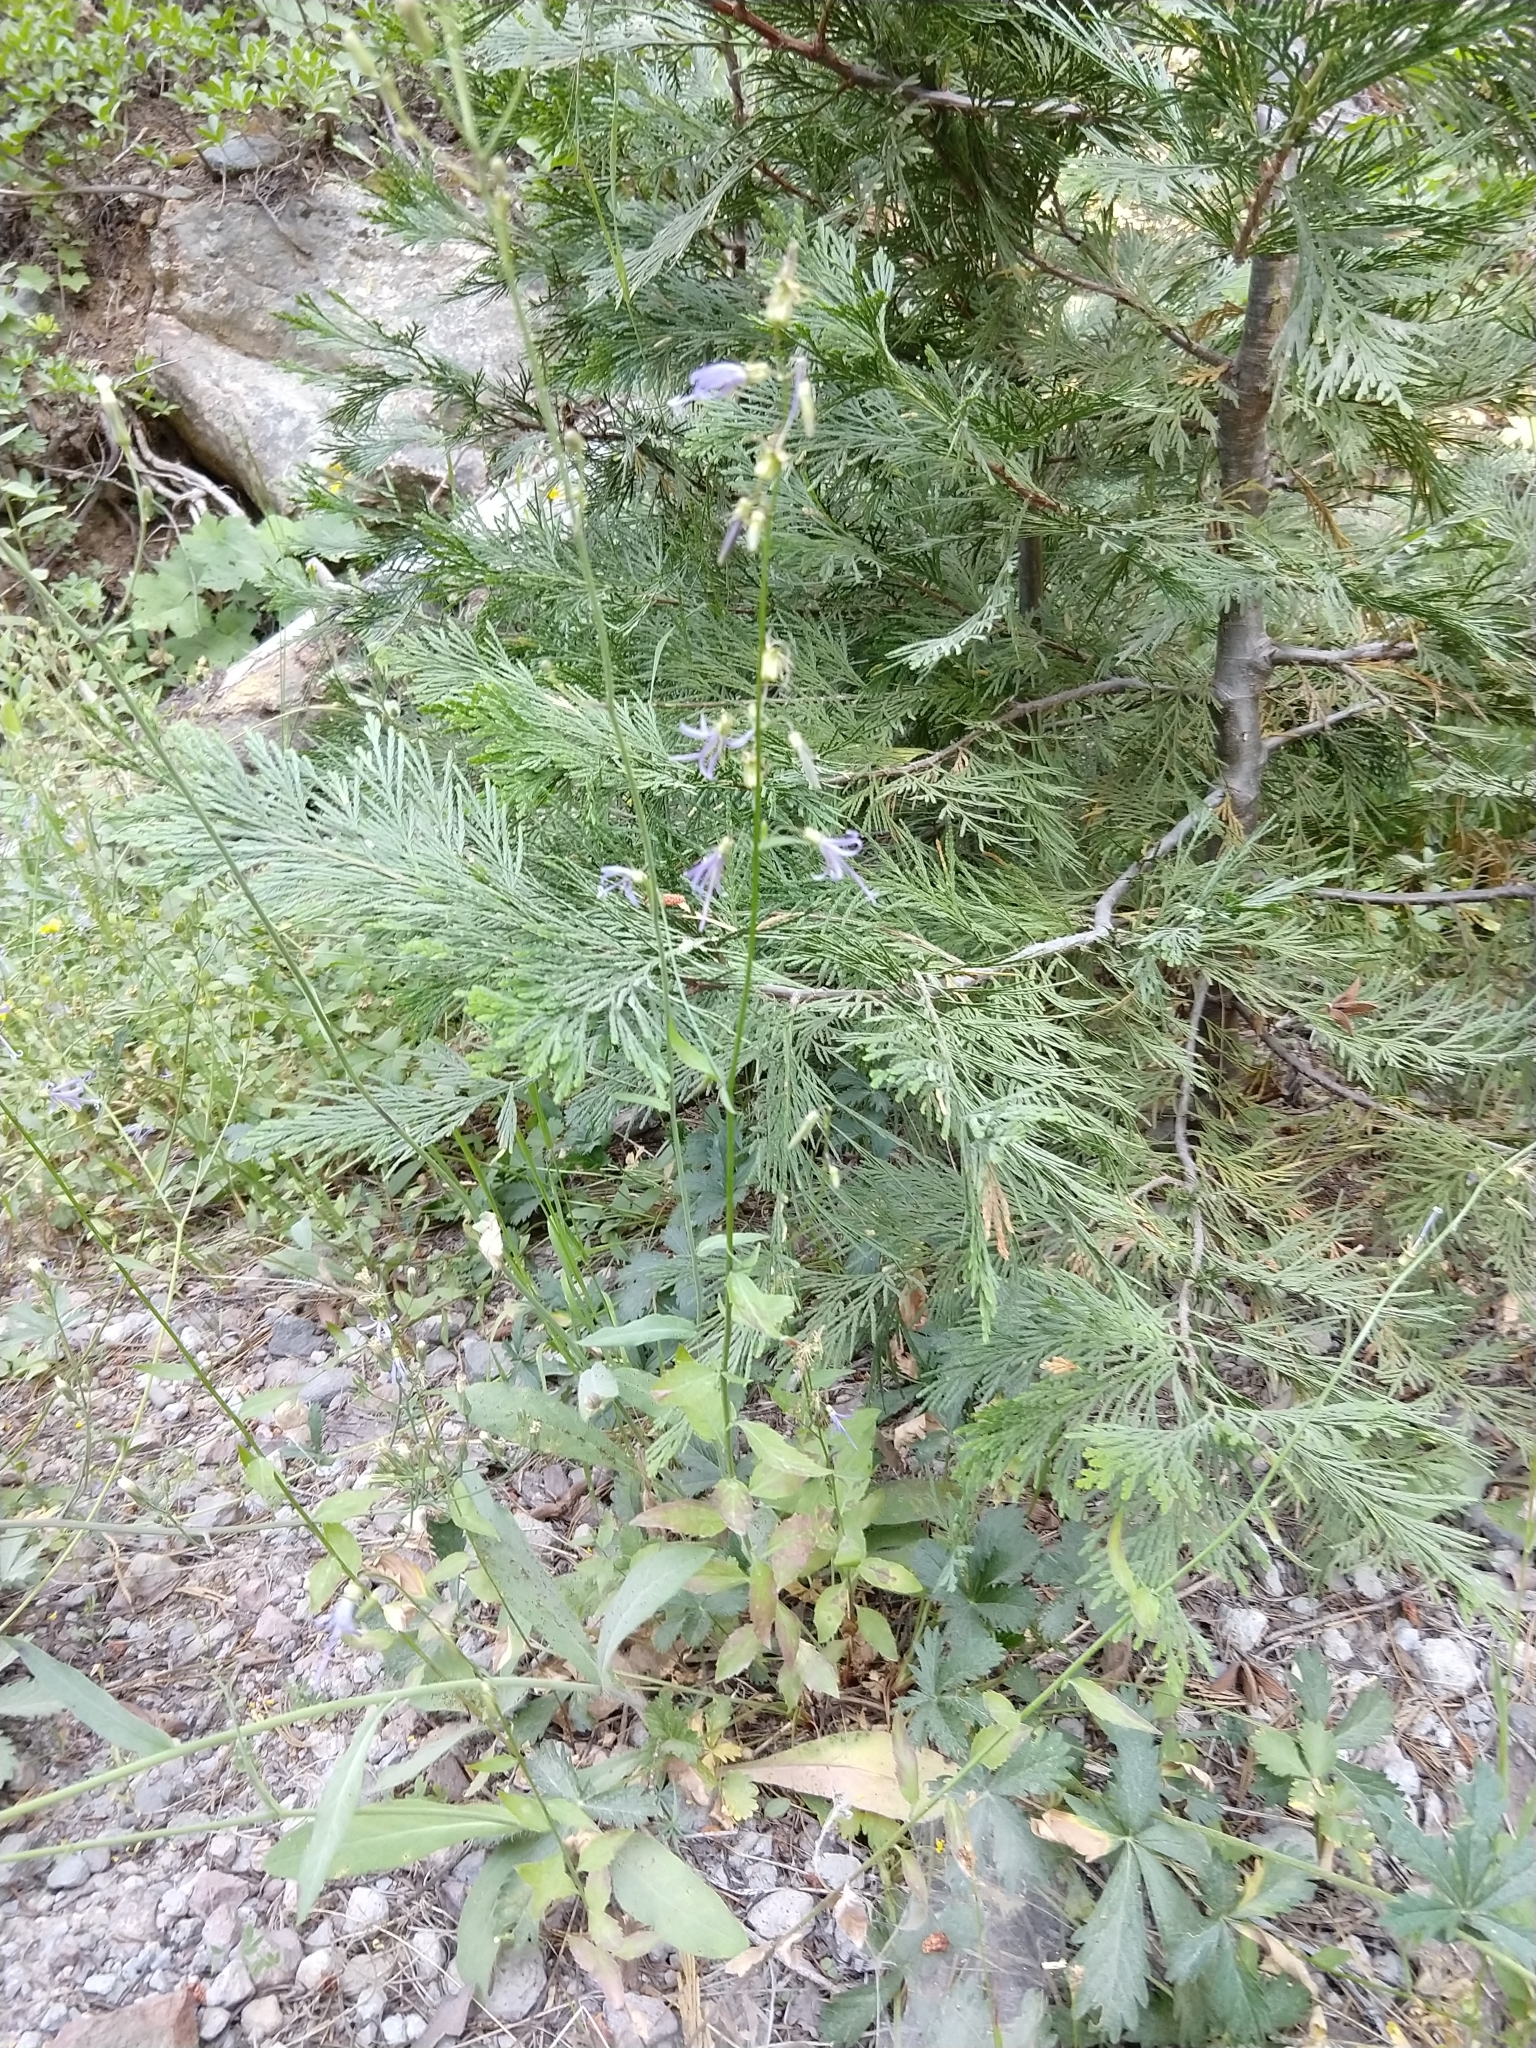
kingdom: Plantae
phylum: Tracheophyta
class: Magnoliopsida
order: Asterales
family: Campanulaceae
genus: Smithiastrum
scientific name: Smithiastrum prenanthoides
